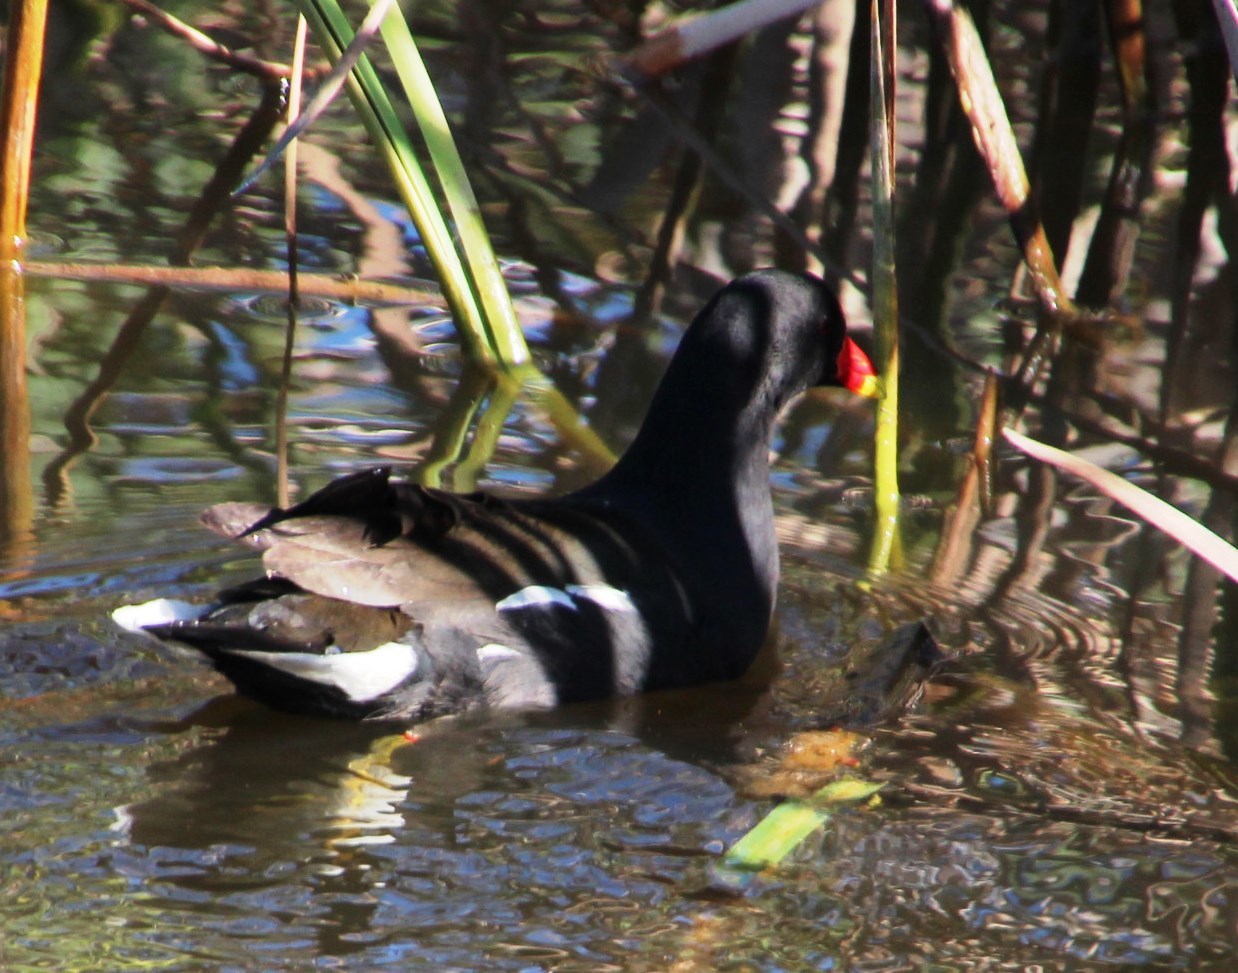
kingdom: Animalia
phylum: Chordata
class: Aves
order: Gruiformes
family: Rallidae
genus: Gallinula
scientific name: Gallinula chloropus
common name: Common moorhen
